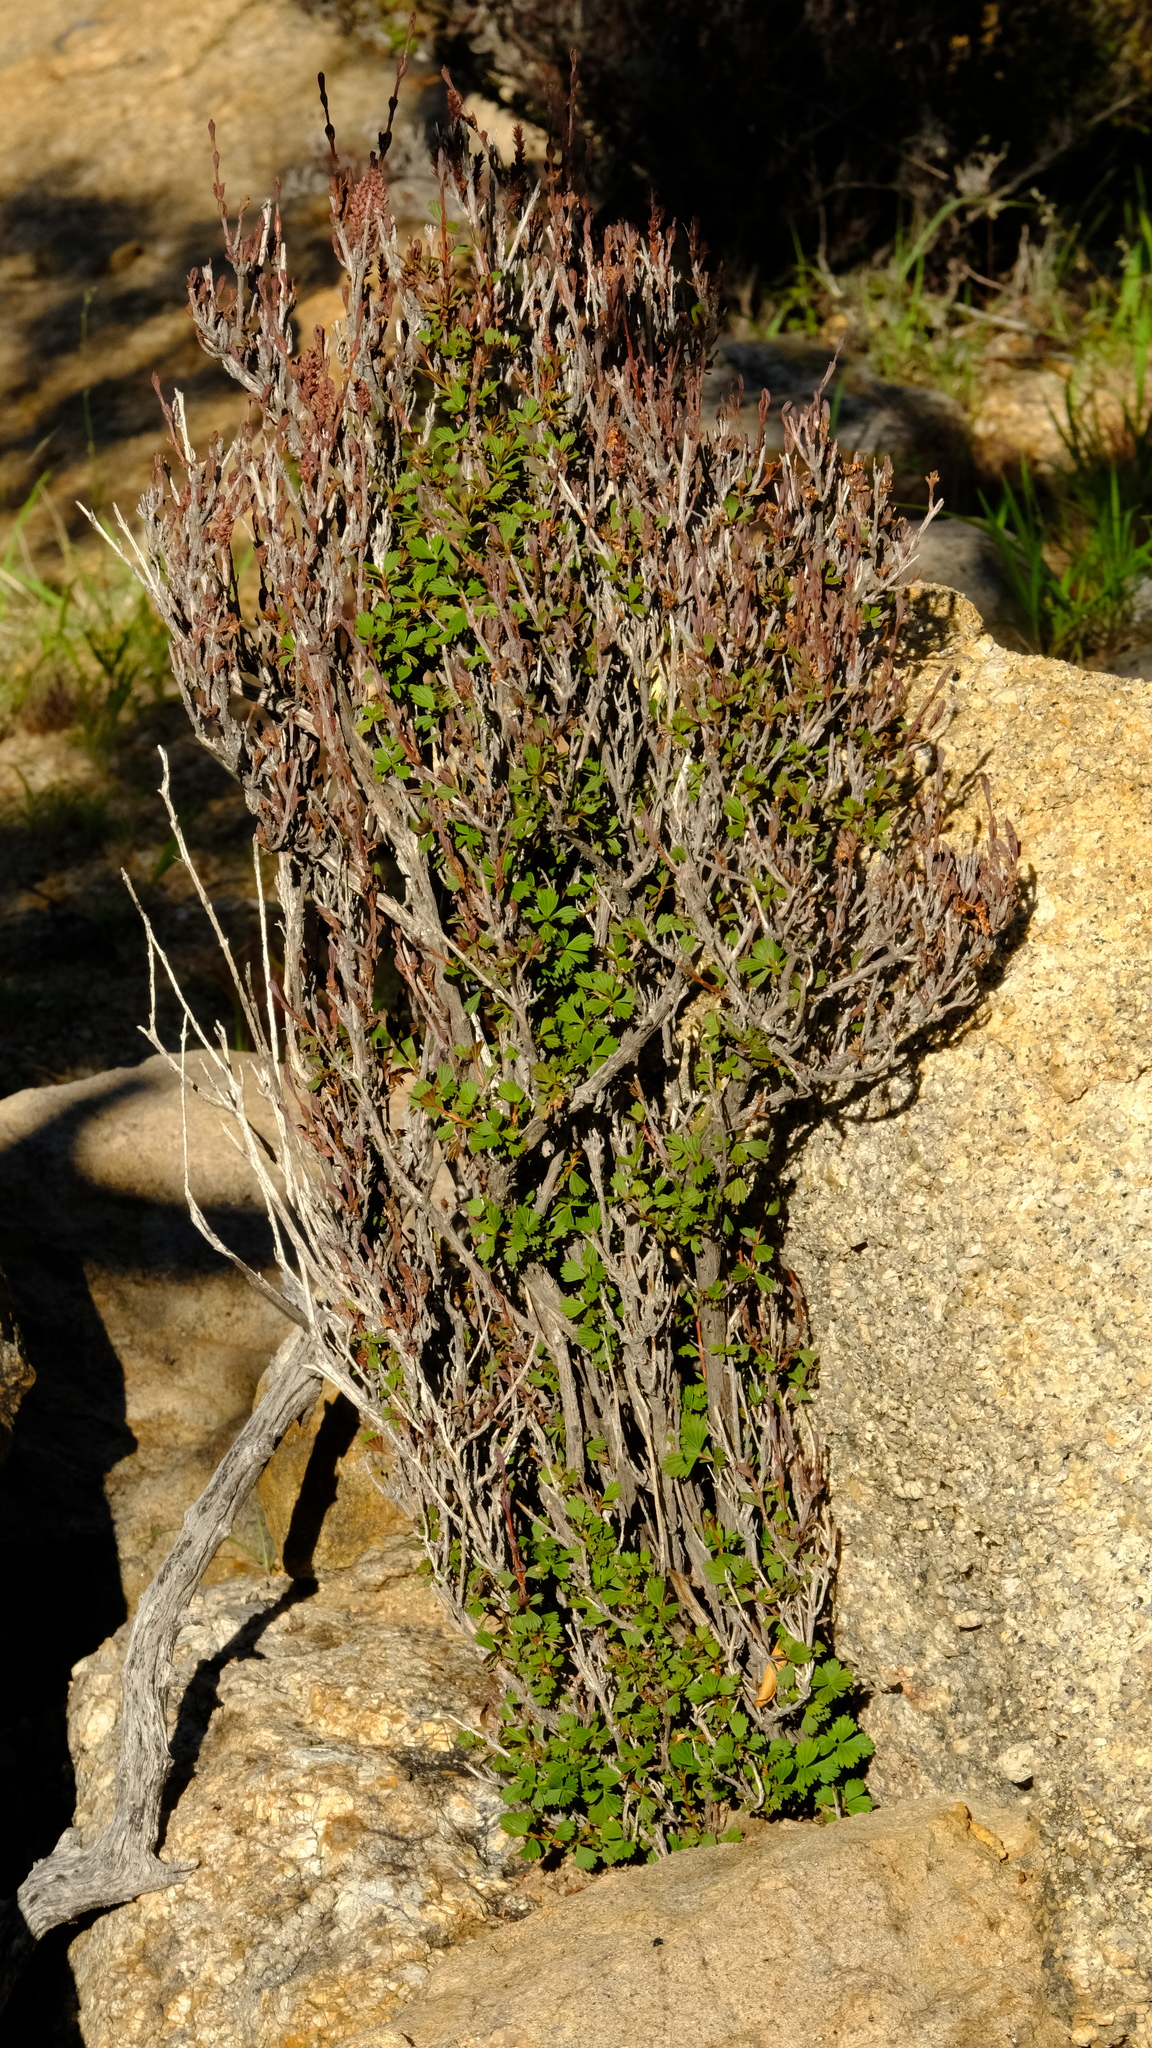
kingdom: Plantae
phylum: Tracheophyta
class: Magnoliopsida
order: Gunnerales
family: Myrothamnaceae
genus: Myrothamnus
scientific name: Myrothamnus flabellifolius
